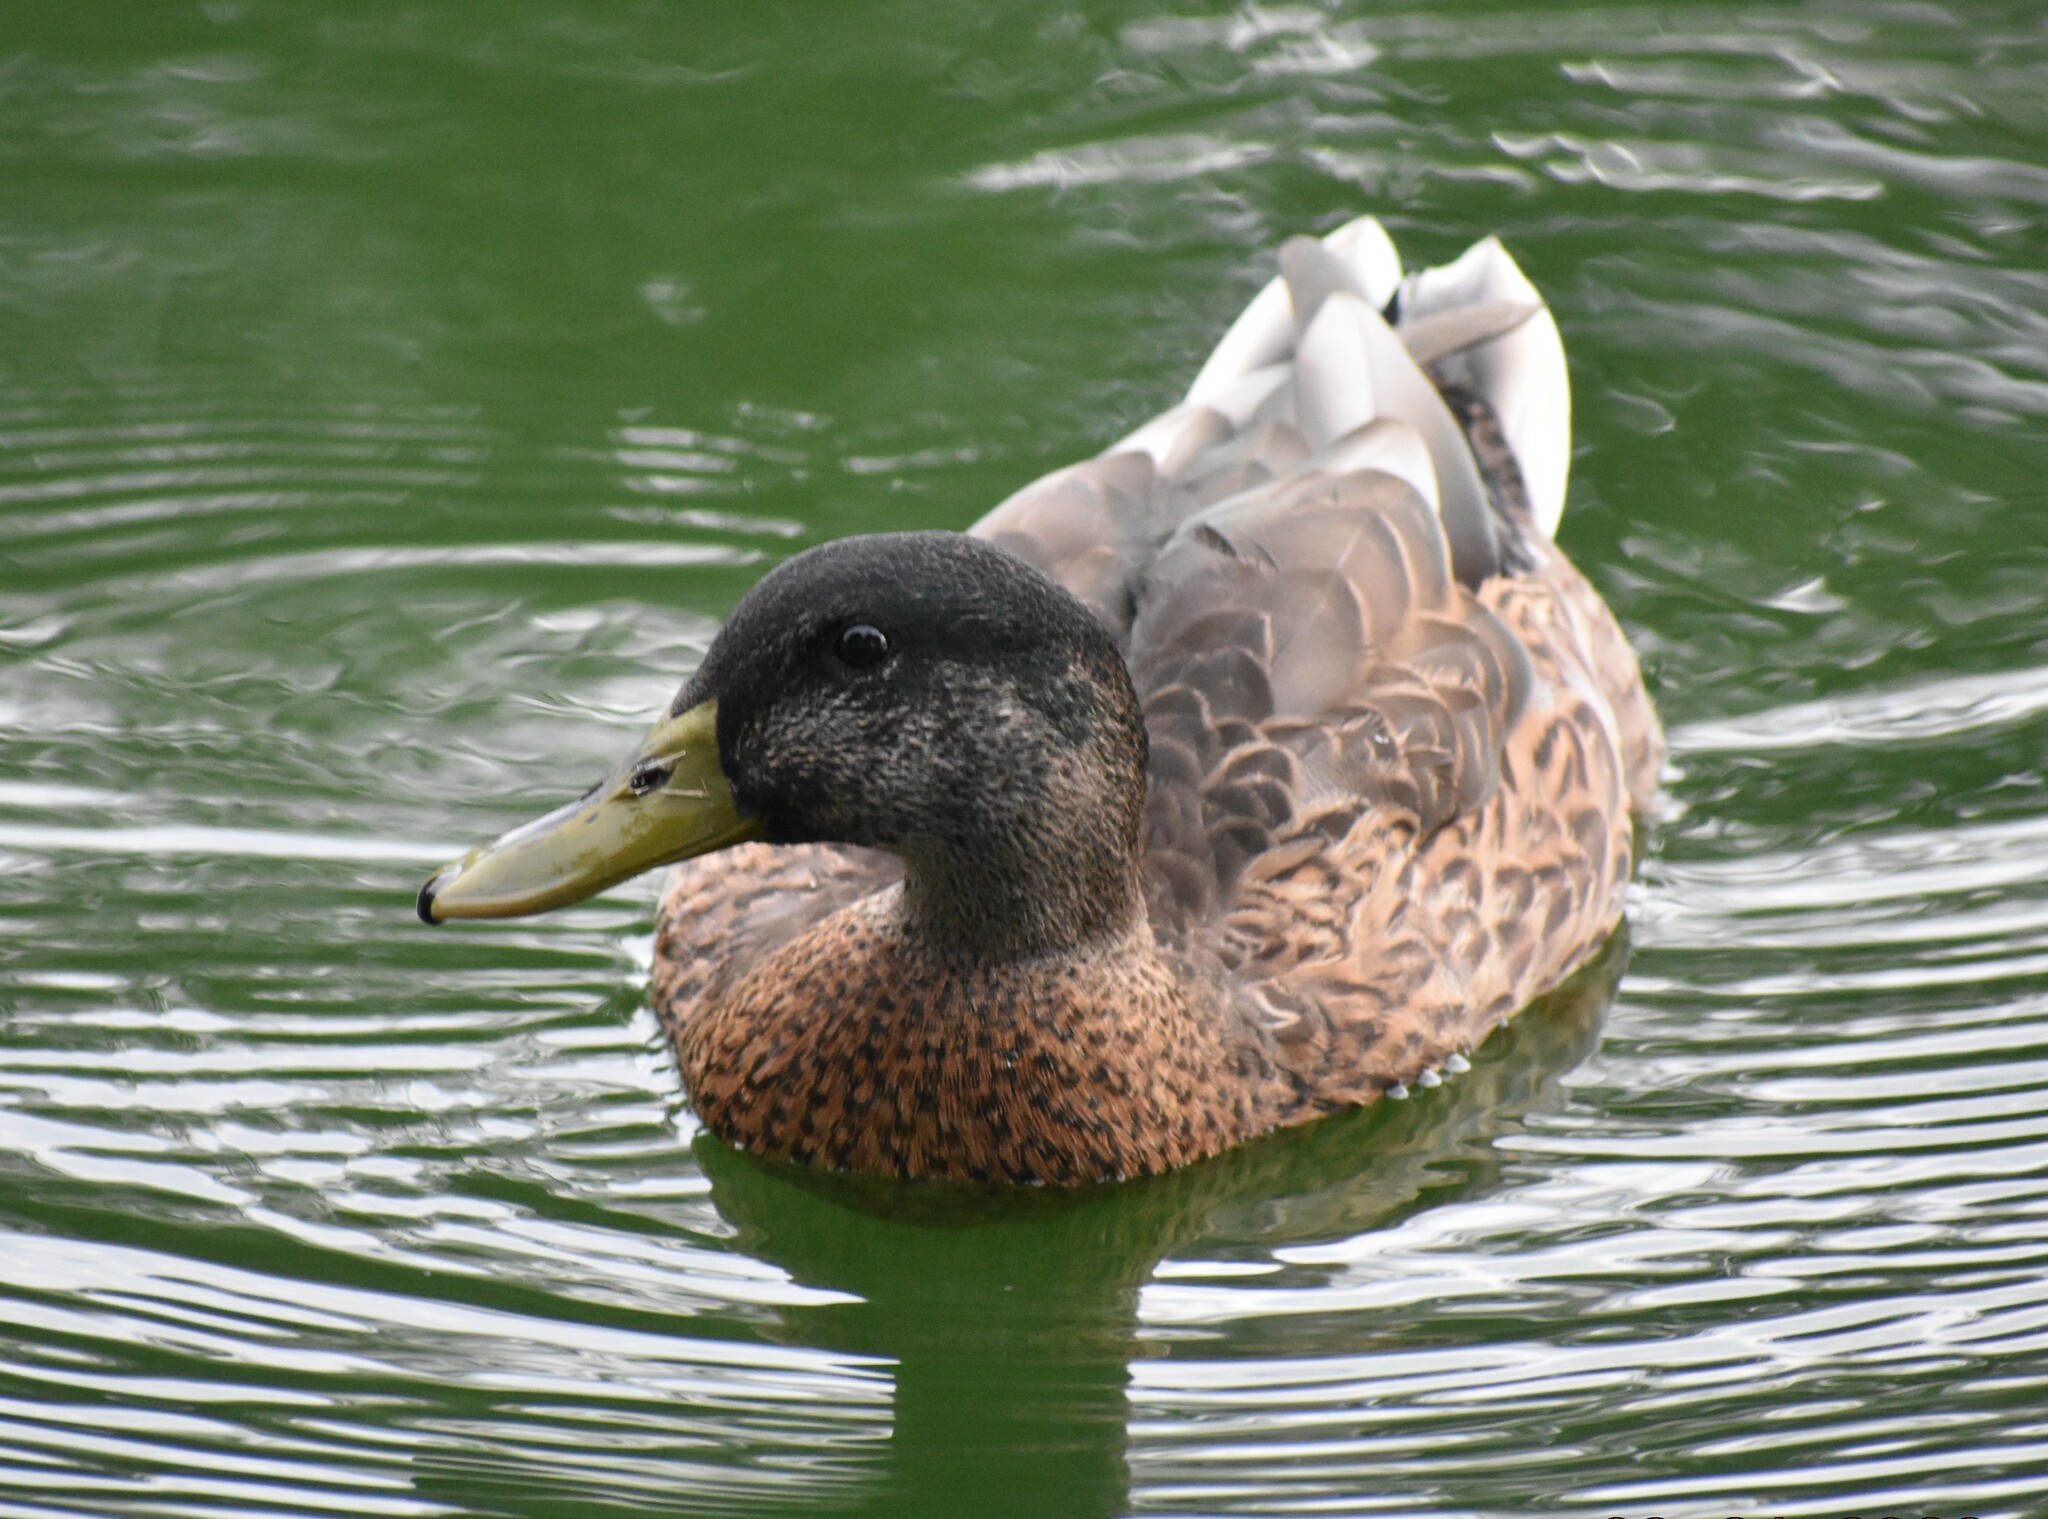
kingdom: Animalia
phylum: Chordata
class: Aves
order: Anseriformes
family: Anatidae
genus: Anas
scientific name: Anas platyrhynchos
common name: Mallard
